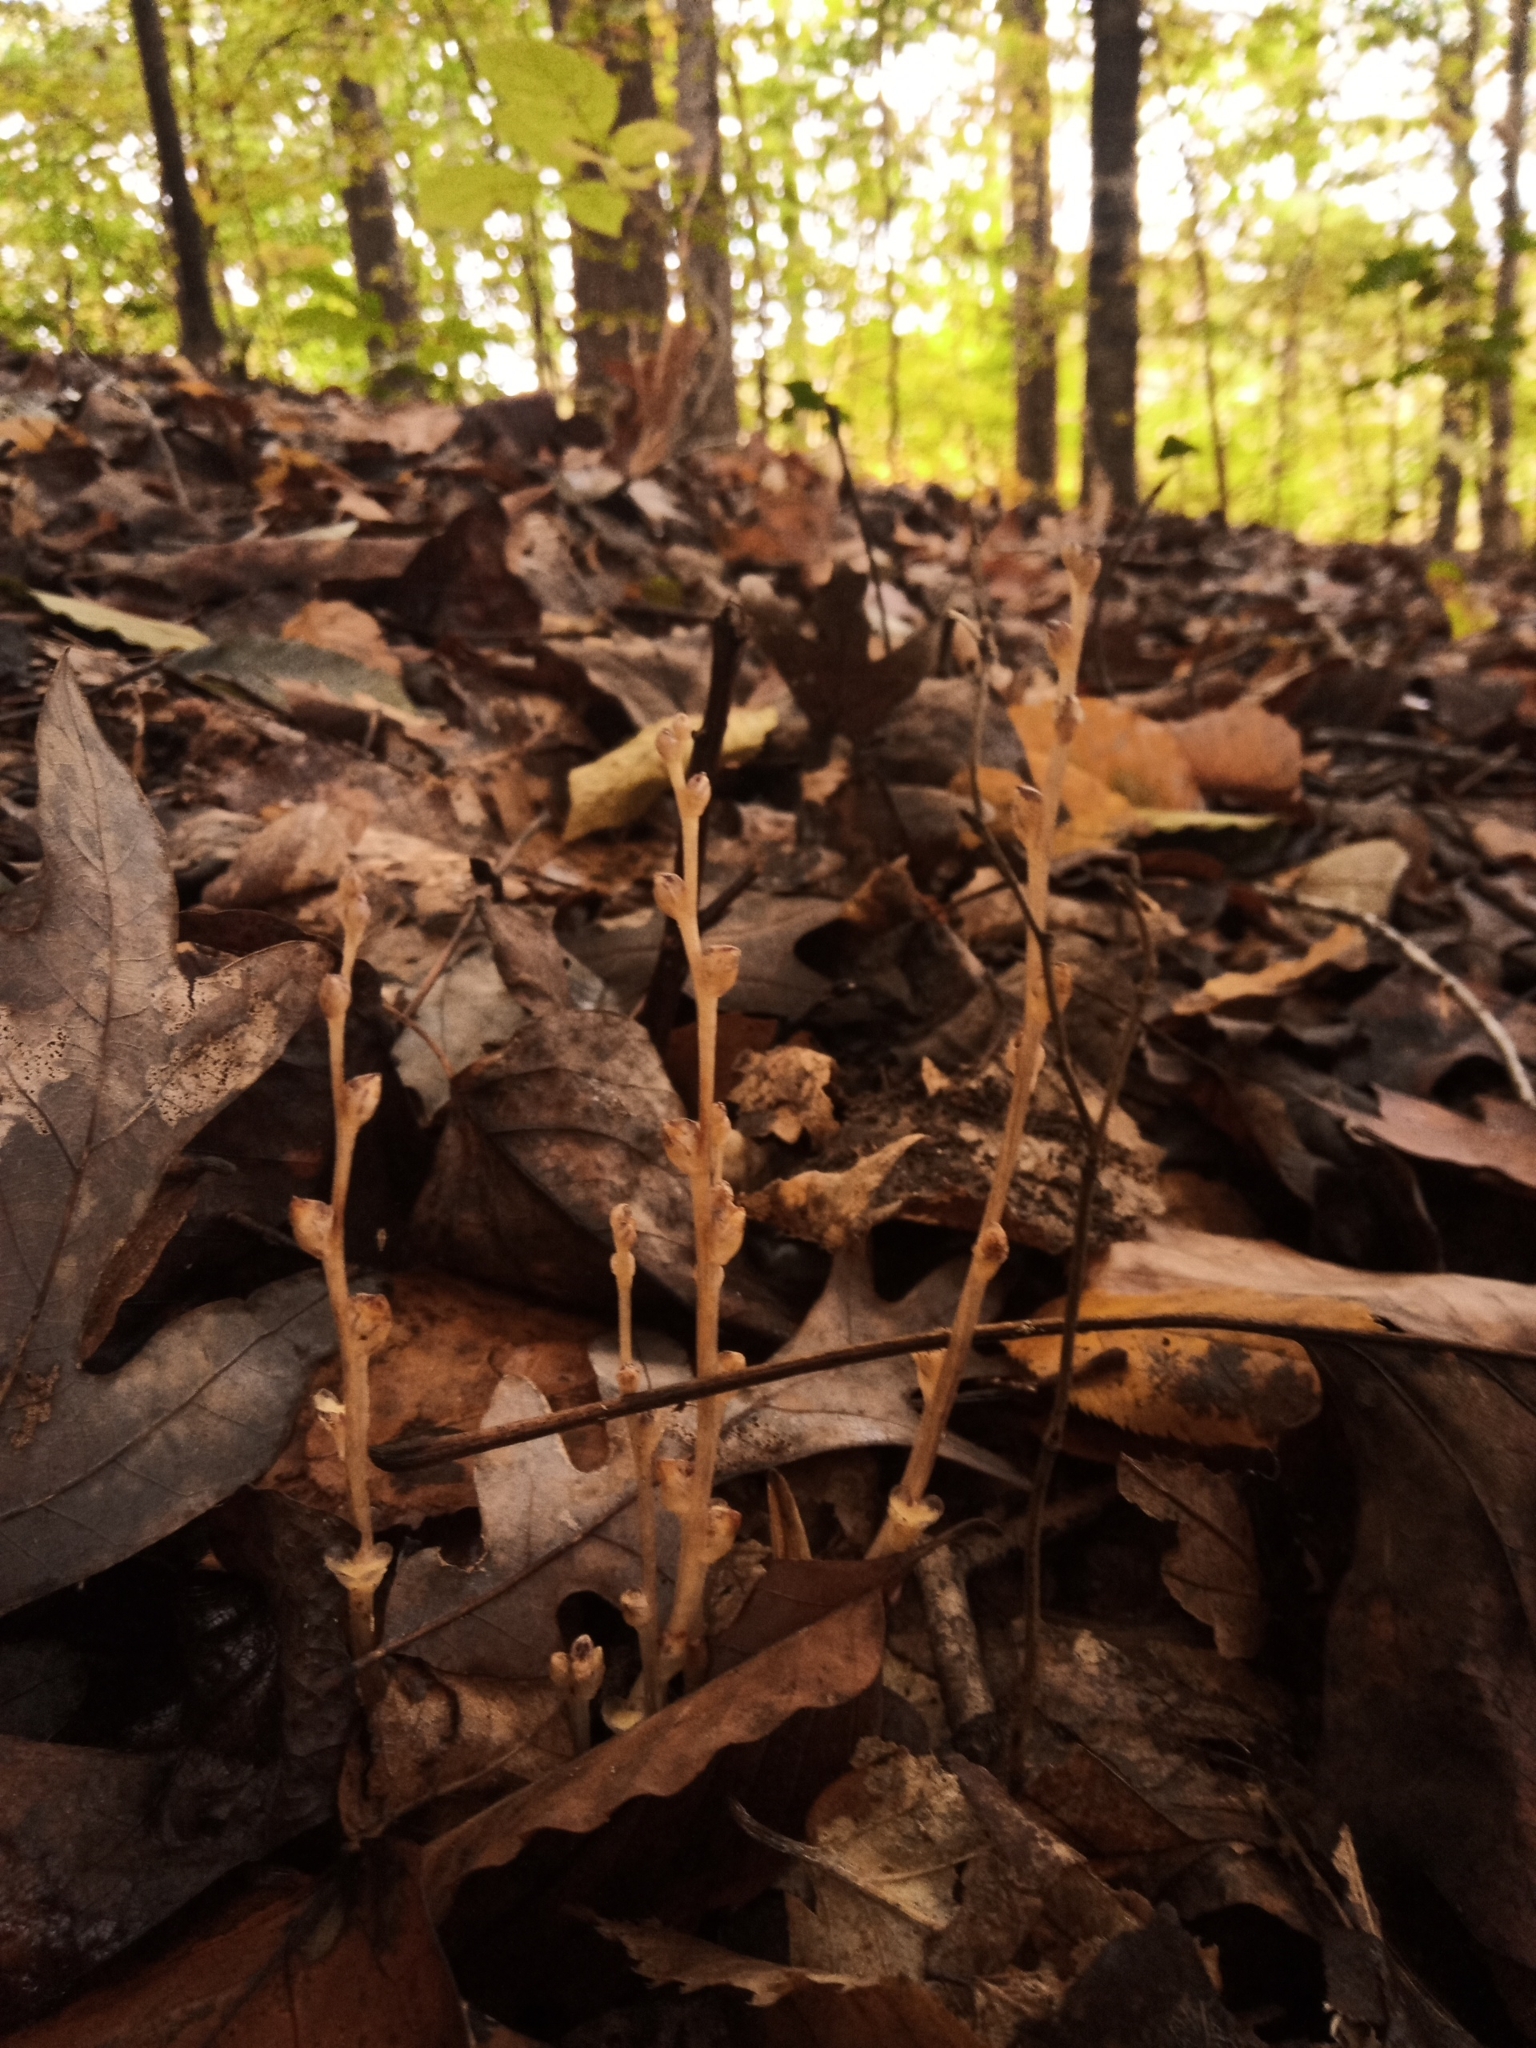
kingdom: Plantae
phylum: Tracheophyta
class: Magnoliopsida
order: Lamiales
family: Orobanchaceae
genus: Epifagus
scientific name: Epifagus virginiana
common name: Beechdrops
